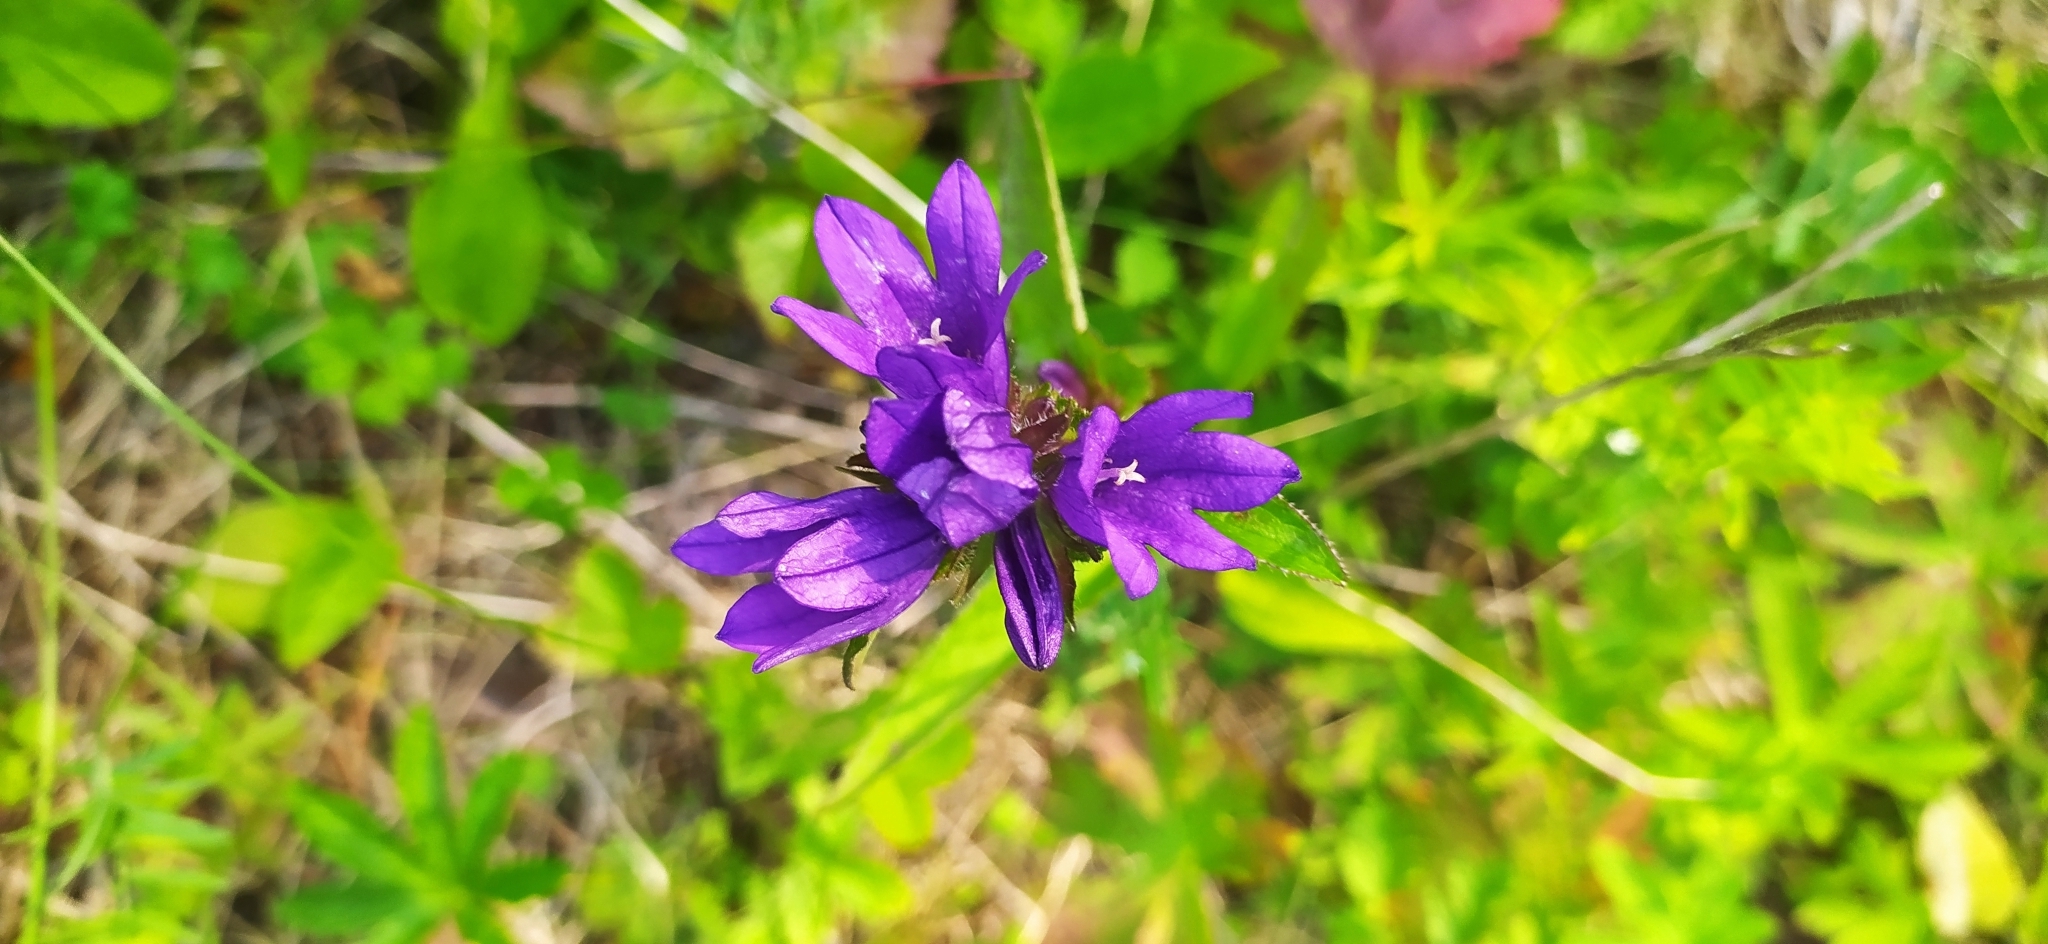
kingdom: Plantae
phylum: Tracheophyta
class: Magnoliopsida
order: Asterales
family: Campanulaceae
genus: Campanula
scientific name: Campanula glomerata
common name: Clustered bellflower
